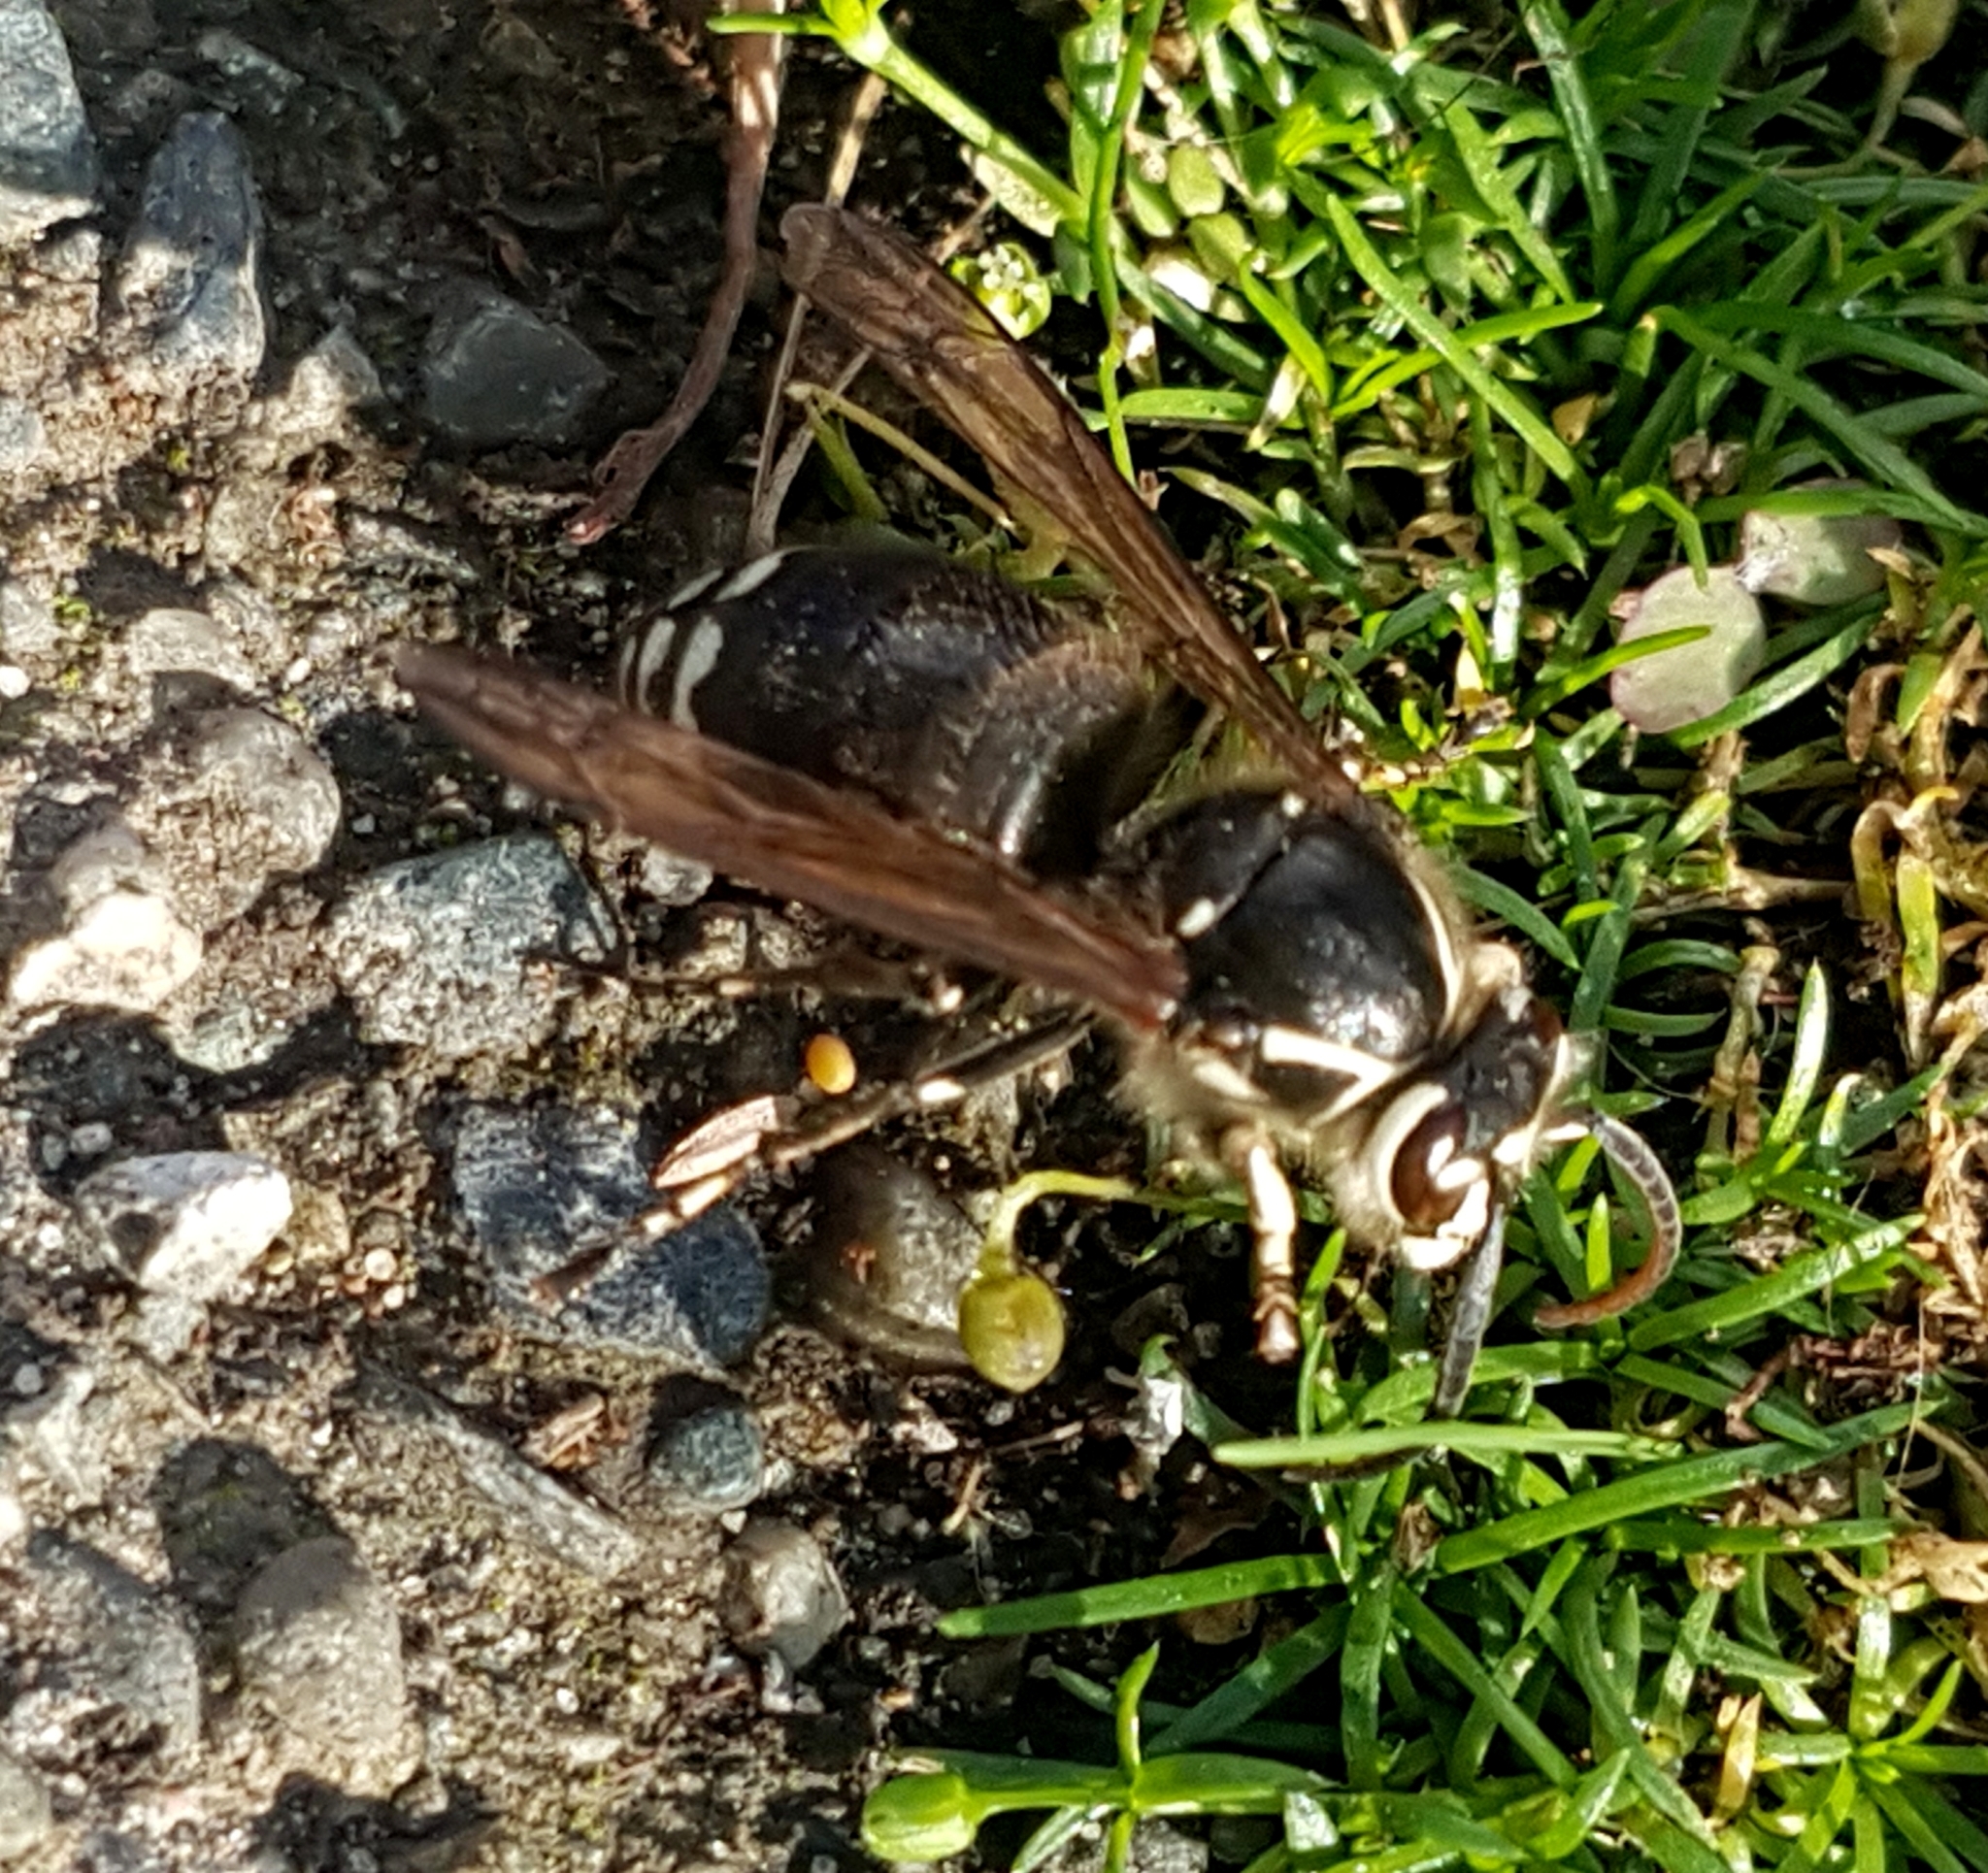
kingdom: Animalia
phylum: Arthropoda
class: Insecta
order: Hymenoptera
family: Vespidae
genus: Dolichovespula
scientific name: Dolichovespula maculata
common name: Bald-faced hornet
